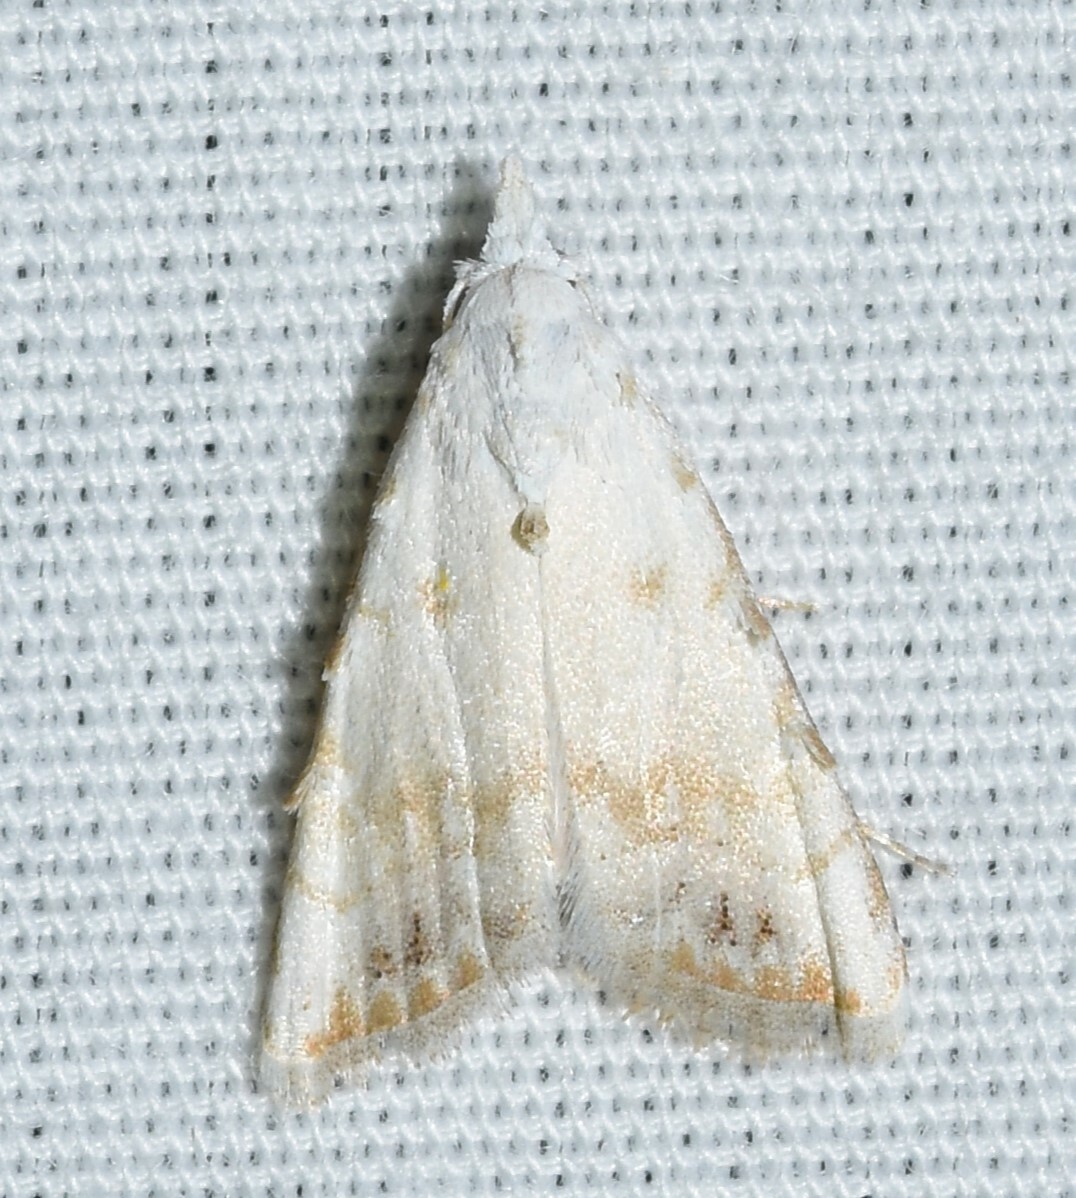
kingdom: Animalia
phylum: Arthropoda
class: Insecta
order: Lepidoptera
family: Nolidae
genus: Nola
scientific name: Nola cereella
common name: Sorghum webworm moth
